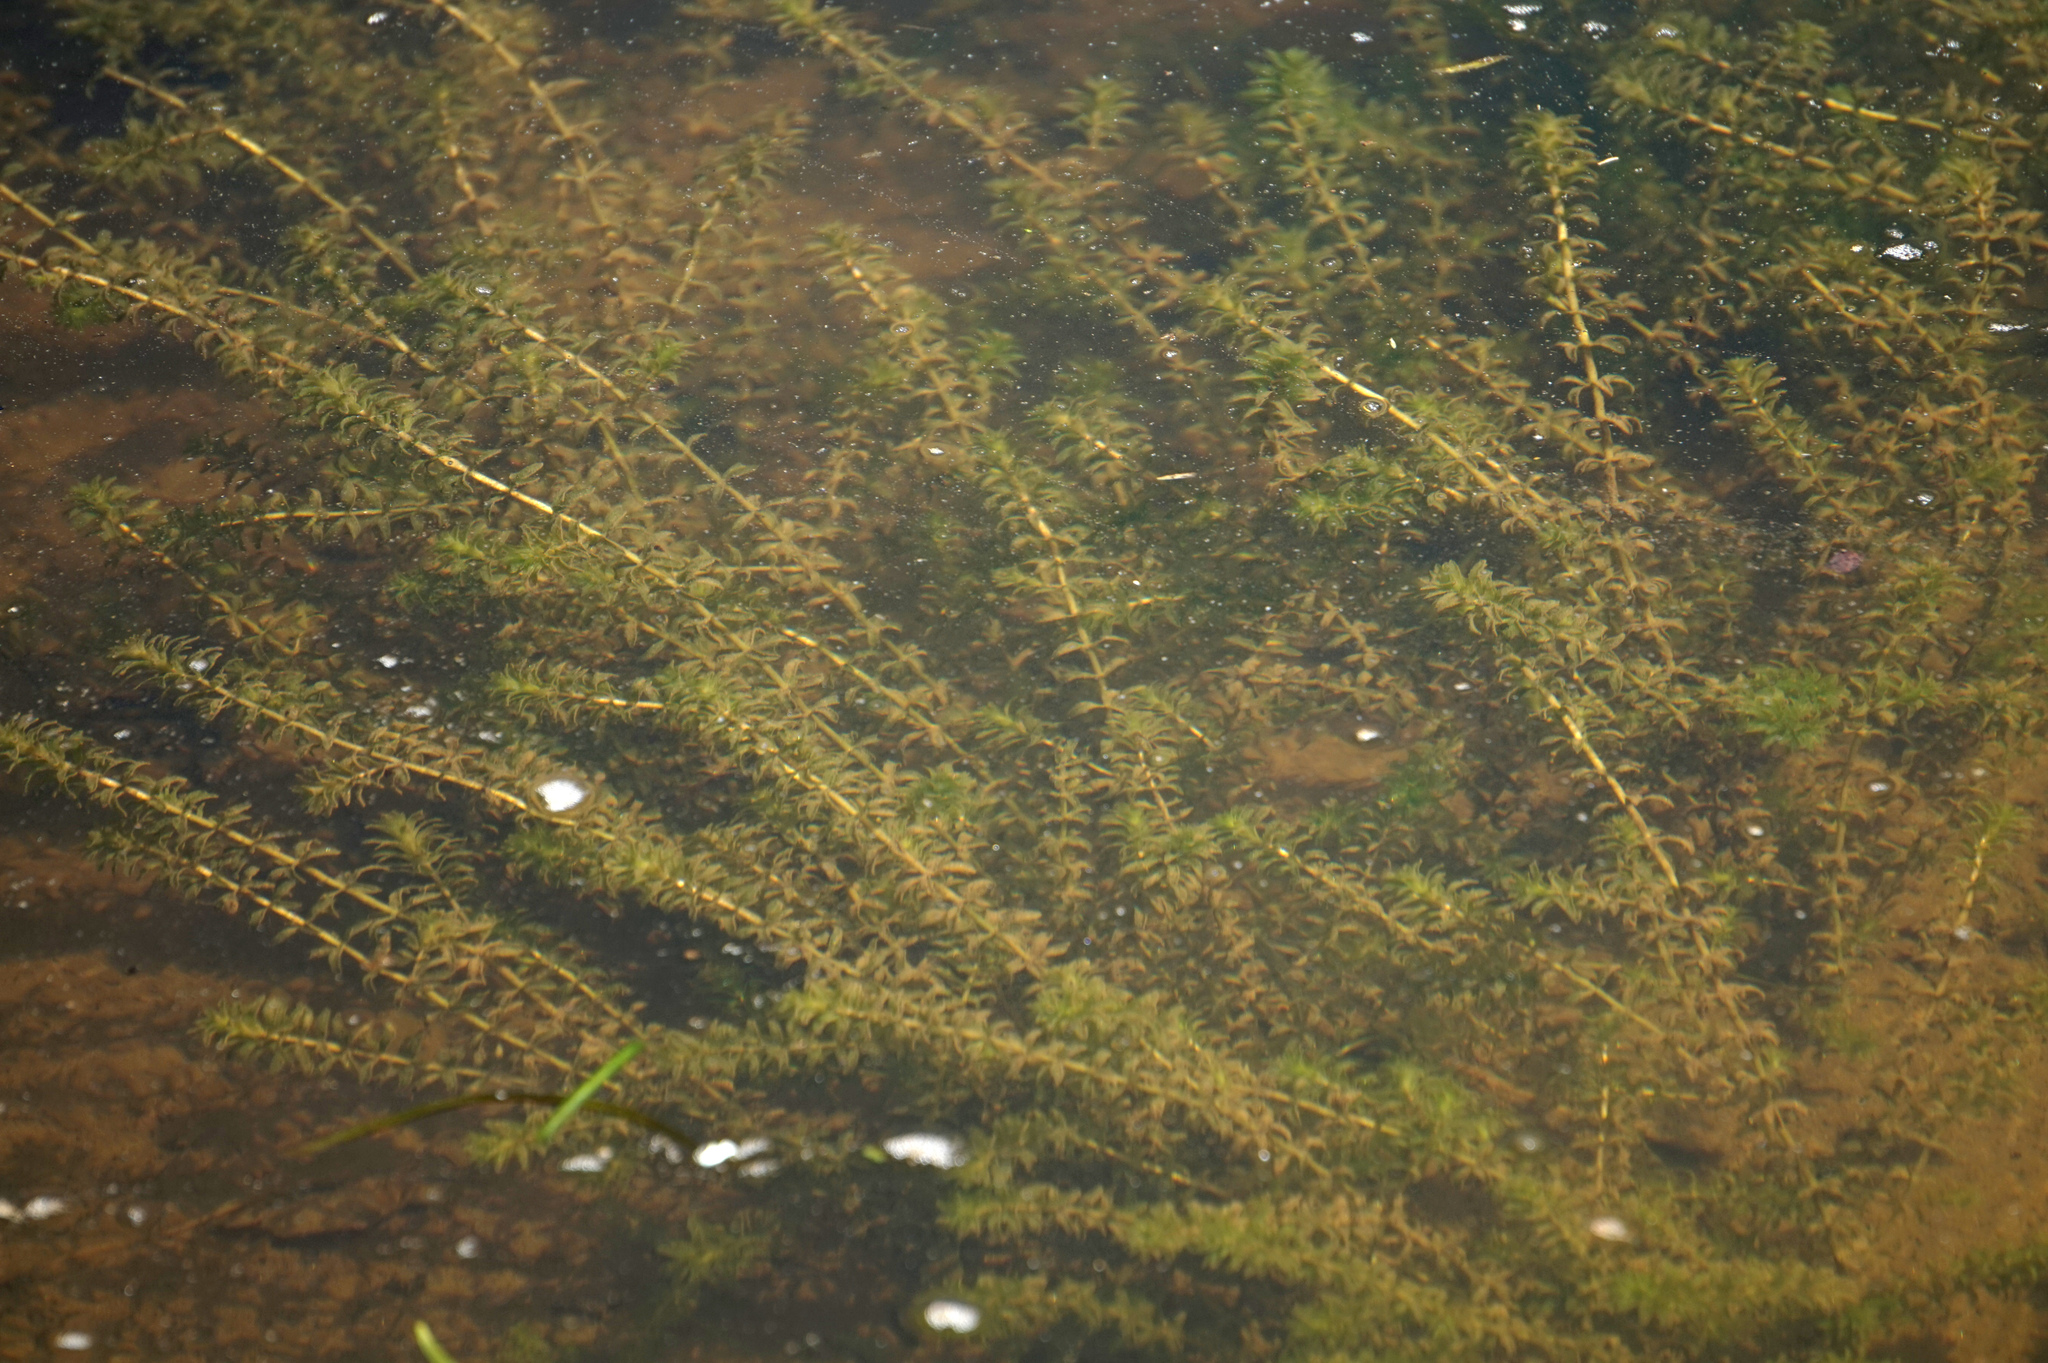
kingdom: Plantae
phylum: Tracheophyta
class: Liliopsida
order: Alismatales
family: Hydrocharitaceae
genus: Hydrilla
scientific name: Hydrilla verticillata
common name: Florida-elodea
